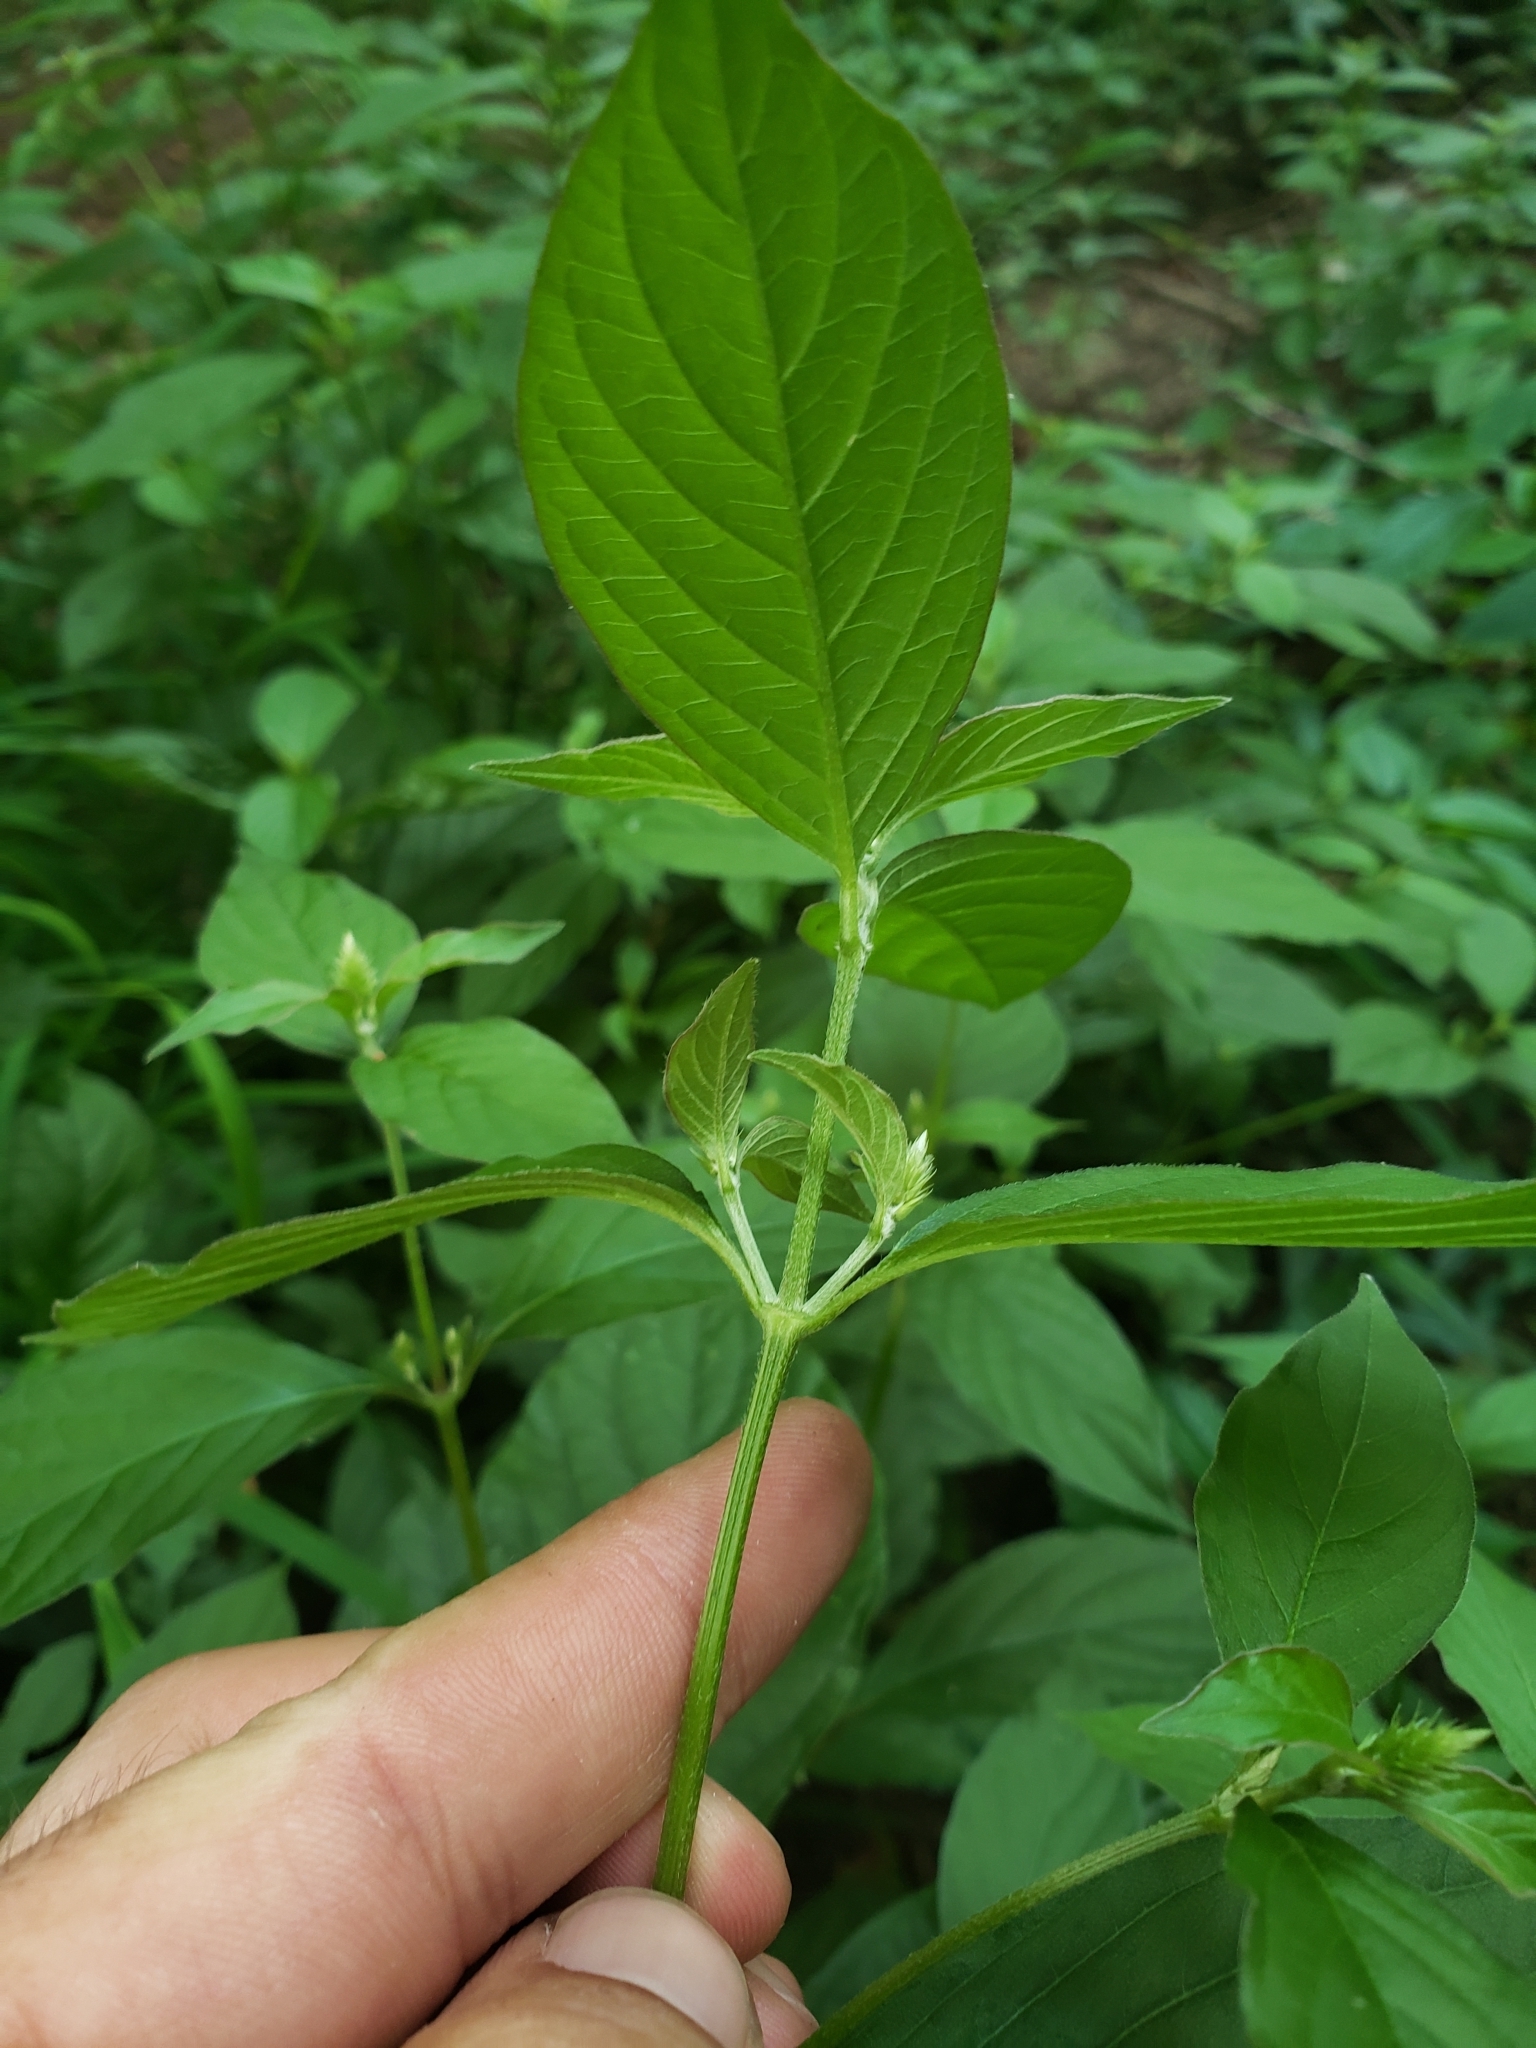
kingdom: Plantae
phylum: Tracheophyta
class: Magnoliopsida
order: Caryophyllales
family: Amaranthaceae
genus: Achyranthes
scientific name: Achyranthes bidentata
